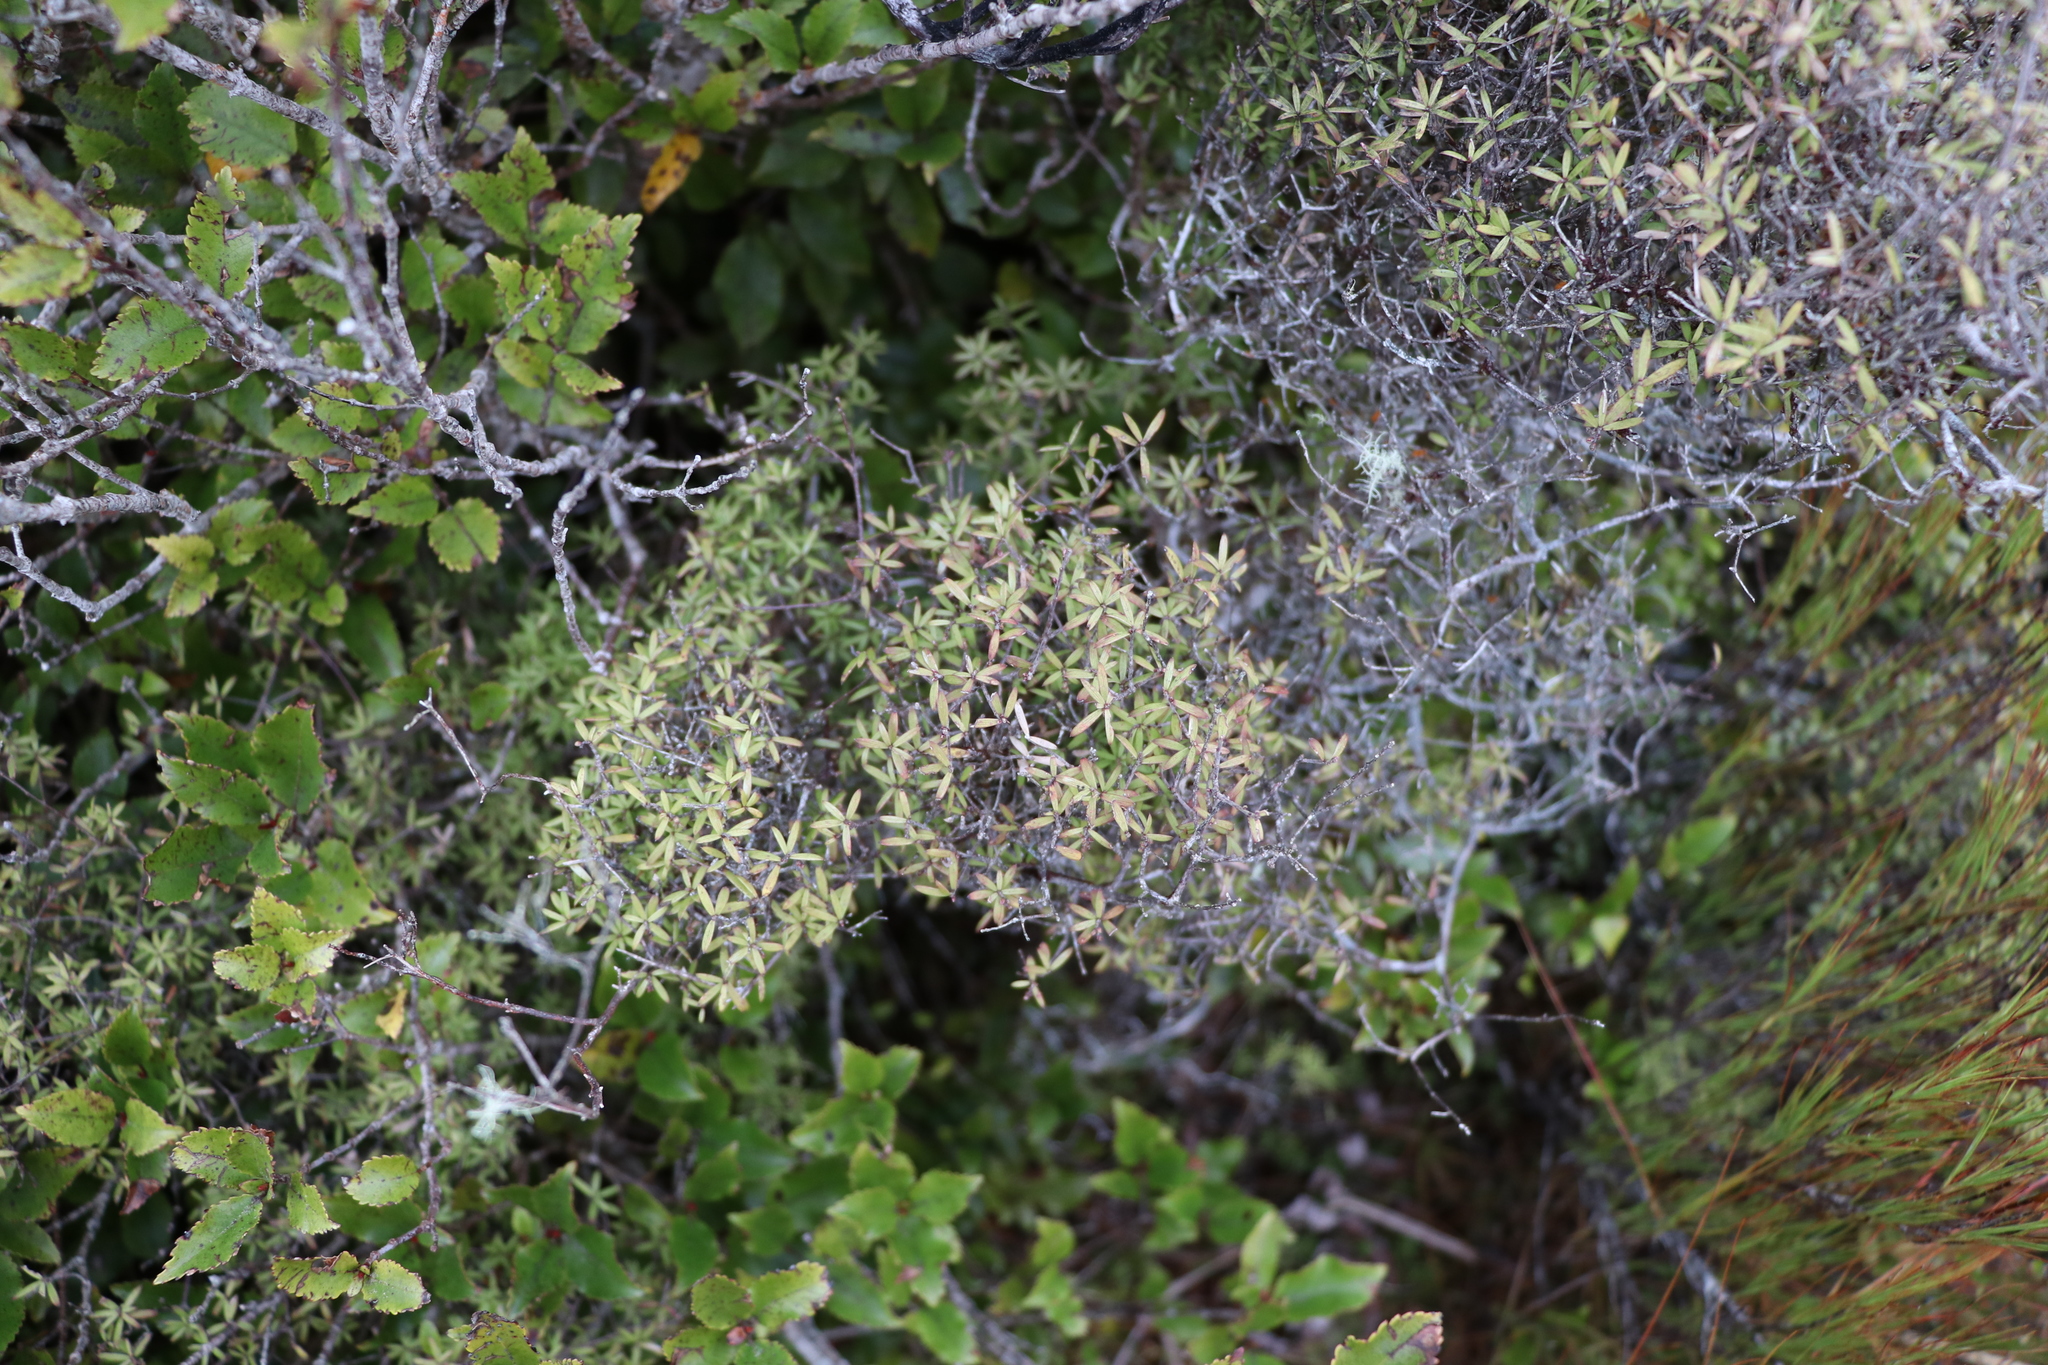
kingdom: Plantae
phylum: Tracheophyta
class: Magnoliopsida
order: Ericales
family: Ericaceae
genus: Leucopogon
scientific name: Leucopogon fasciculatus
